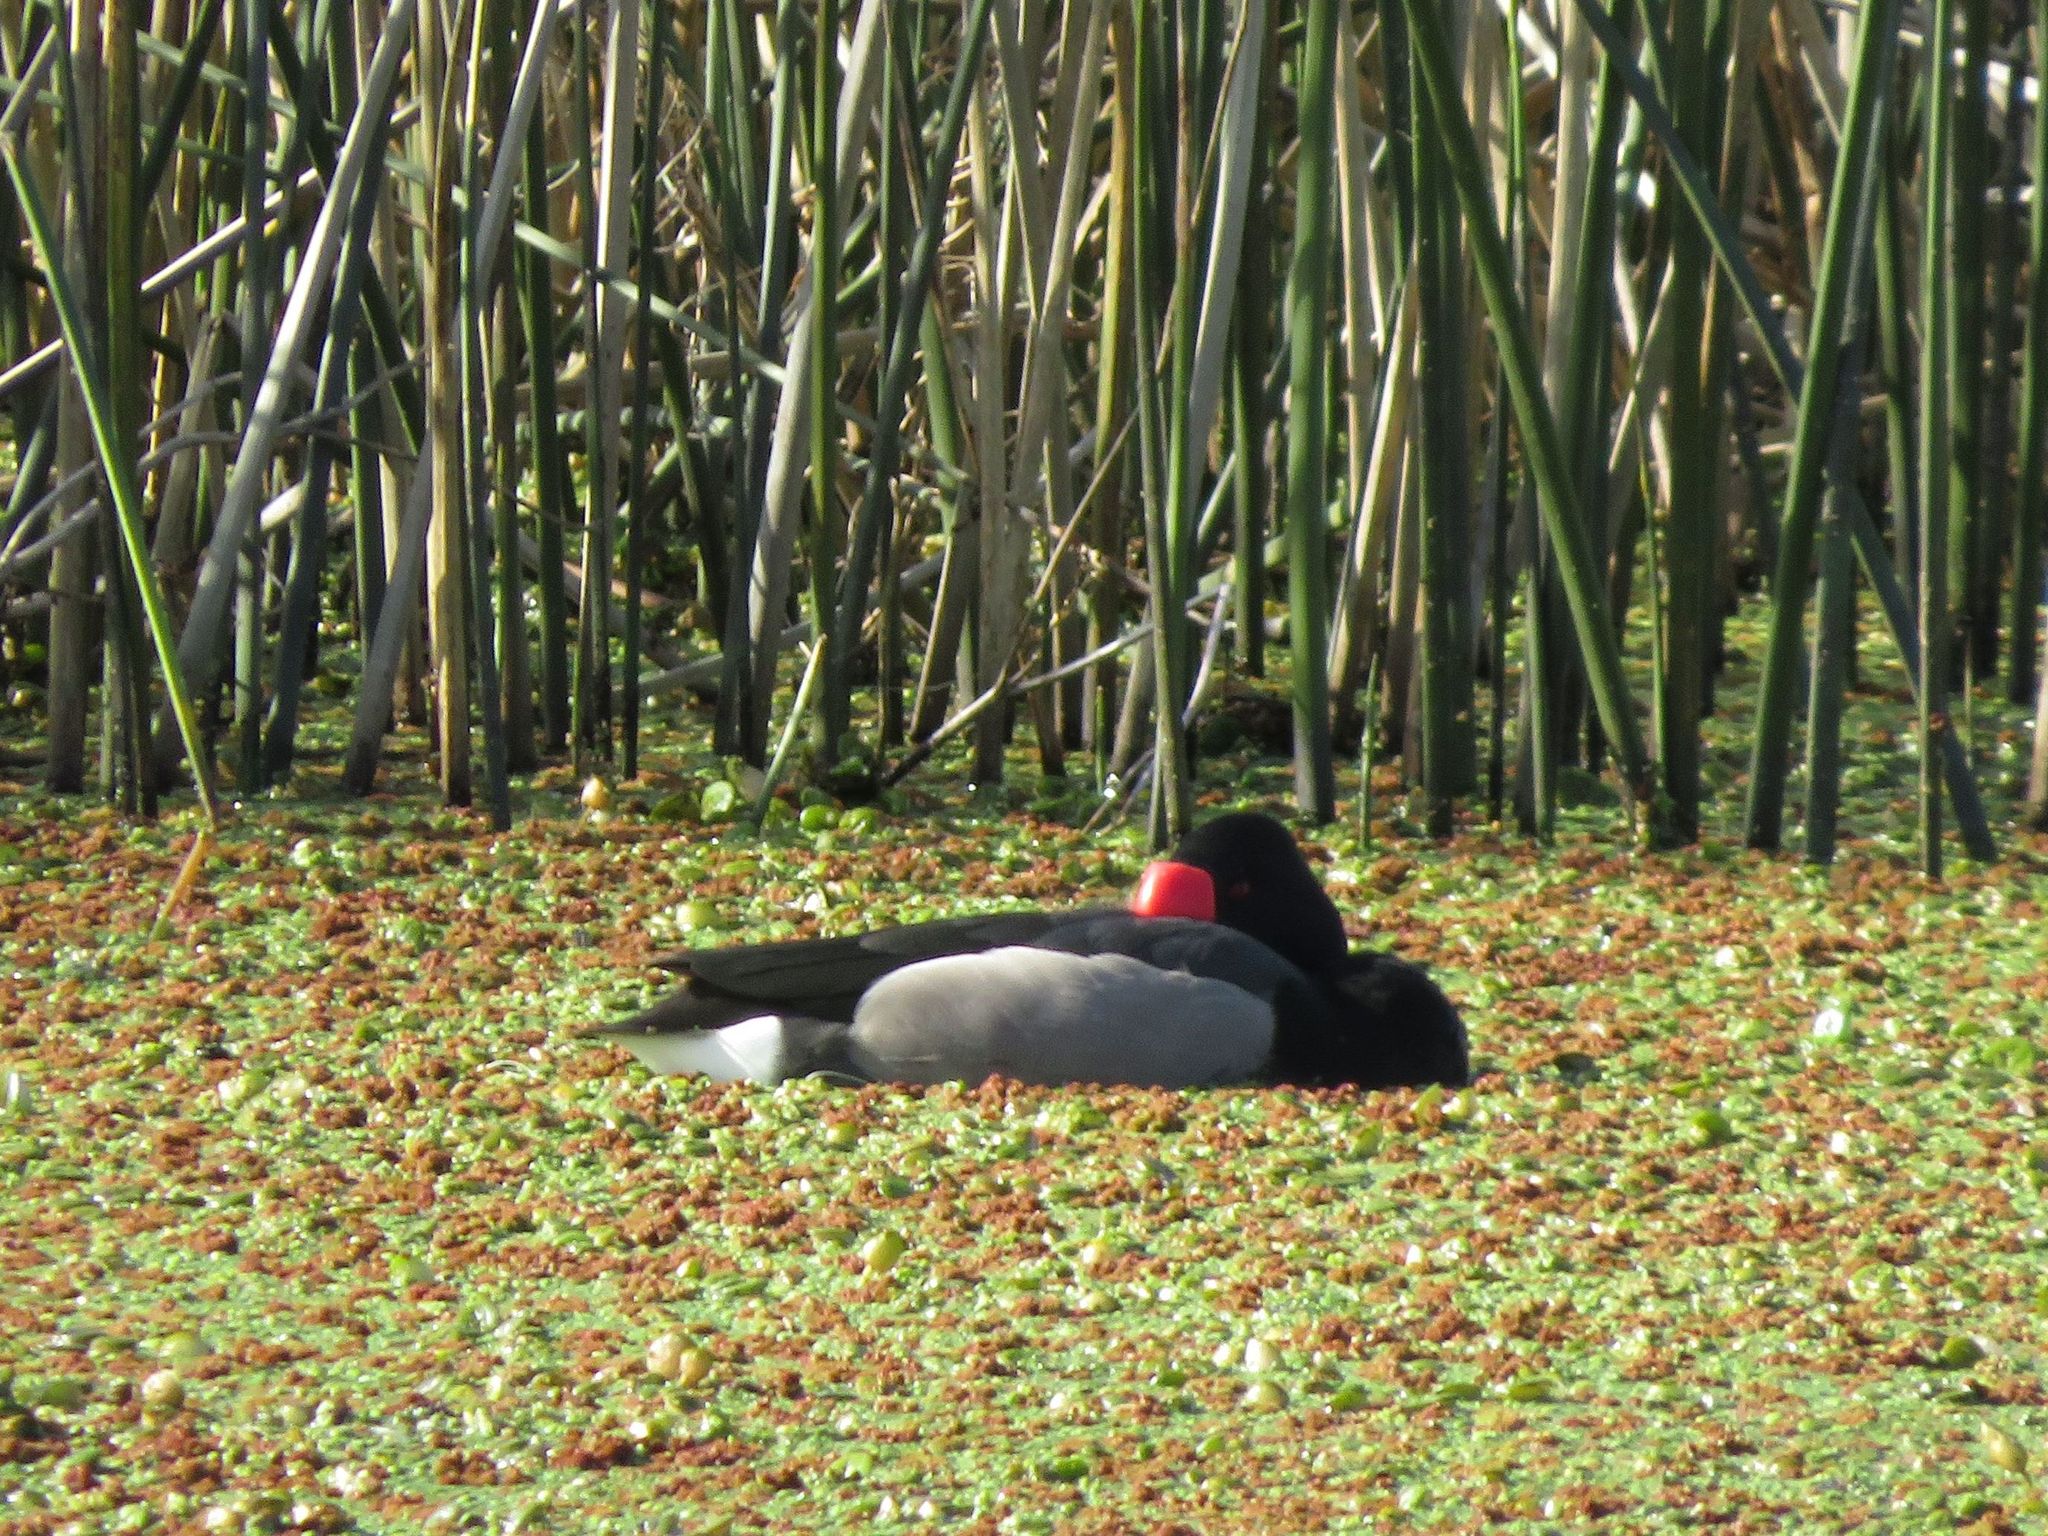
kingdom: Animalia
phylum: Chordata
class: Aves
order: Anseriformes
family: Anatidae
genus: Netta
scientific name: Netta peposaca
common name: Rosy-billed pochard
